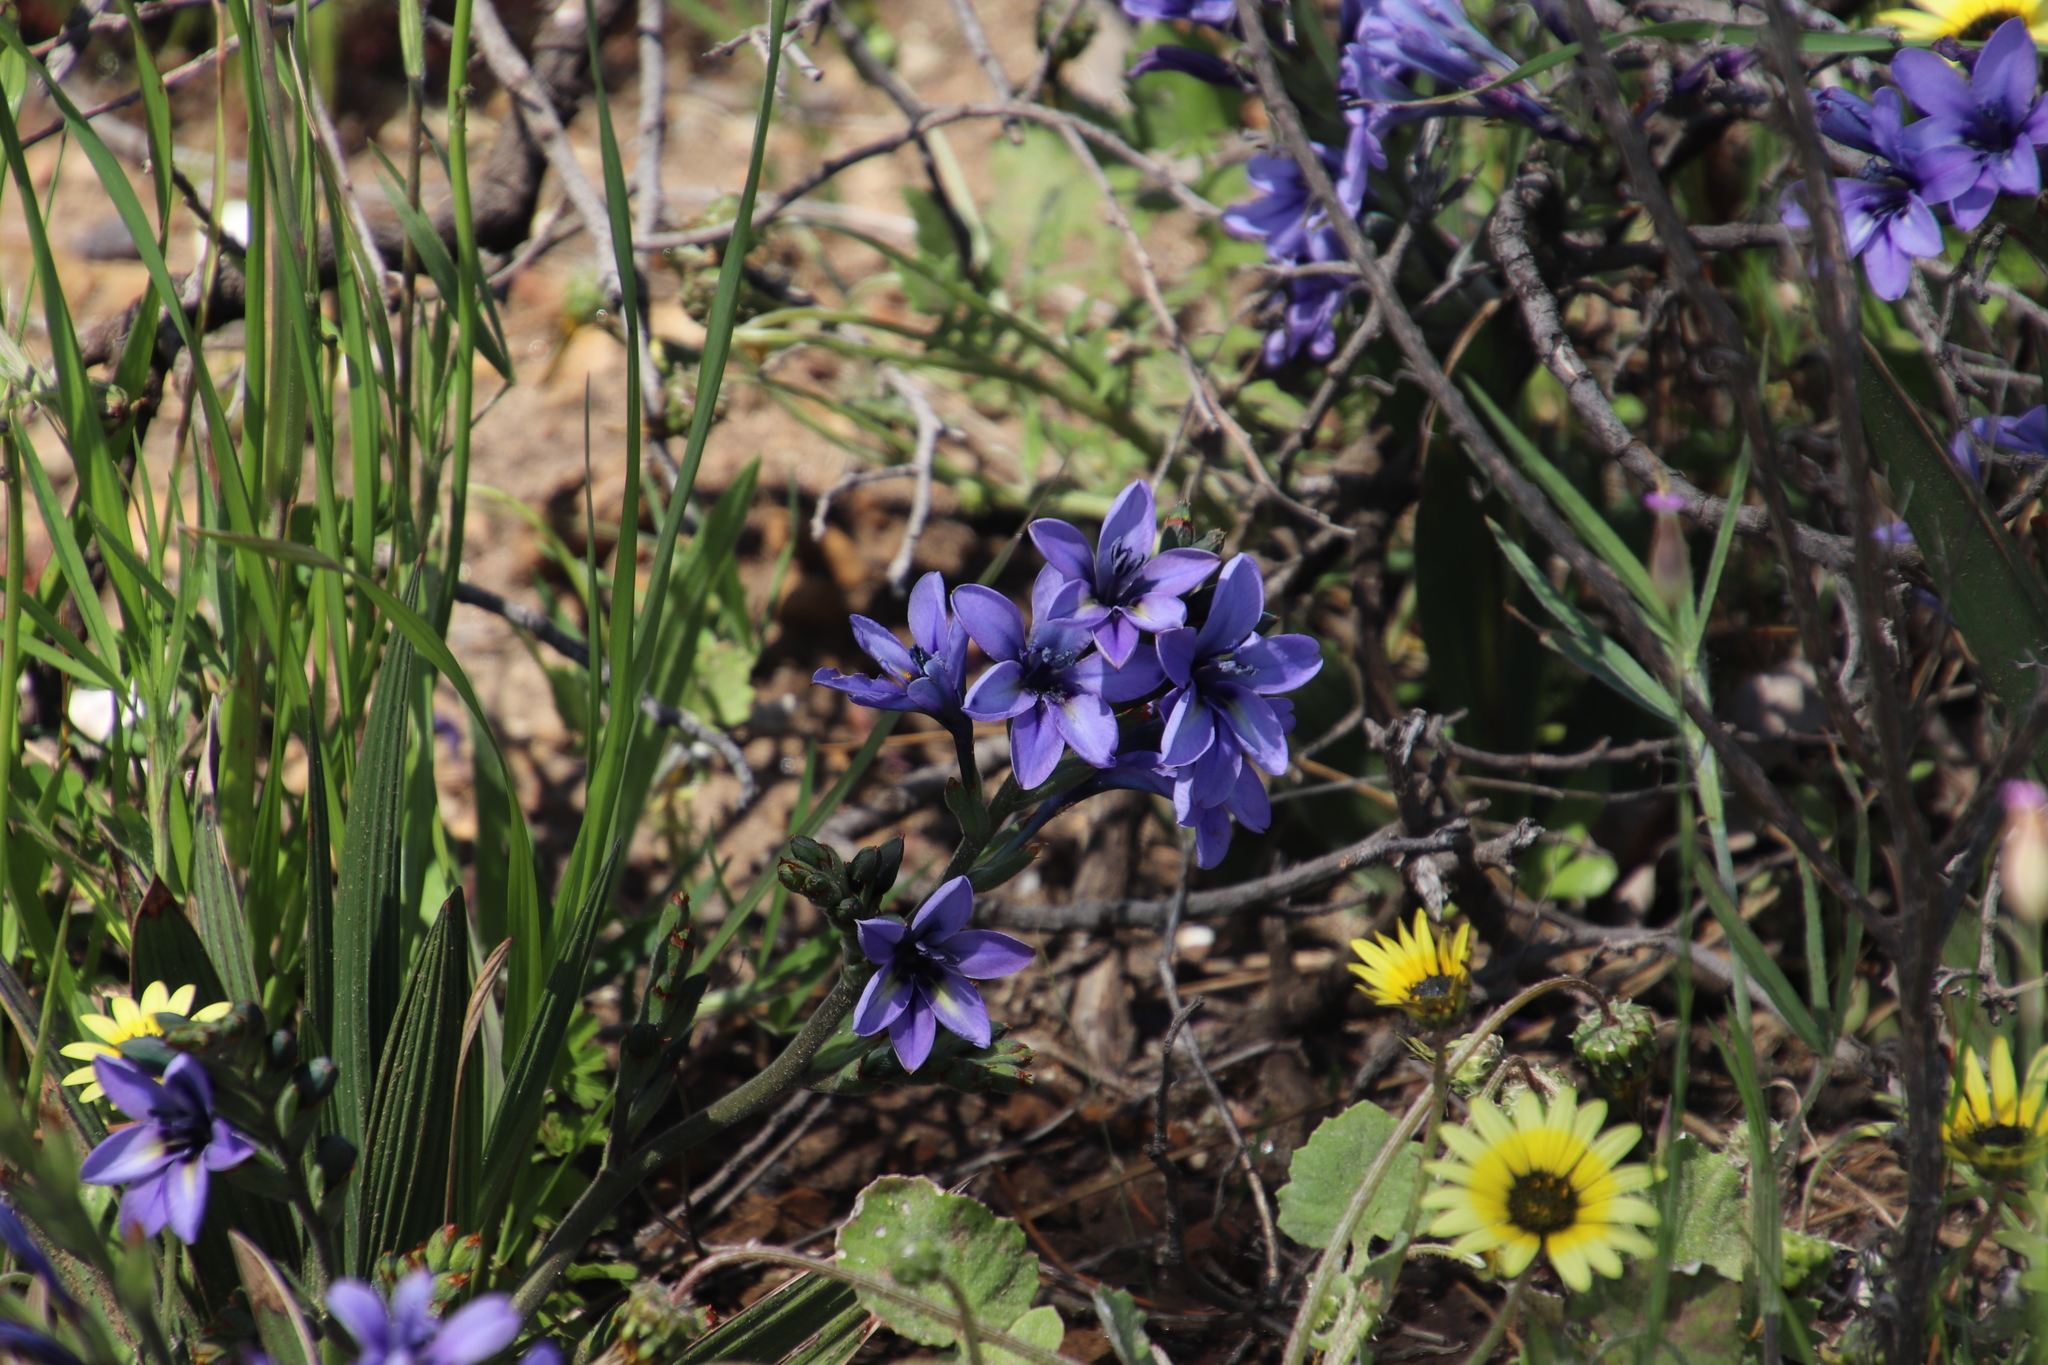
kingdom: Plantae
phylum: Tracheophyta
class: Liliopsida
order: Asparagales
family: Iridaceae
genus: Babiana
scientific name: Babiana fragrans
